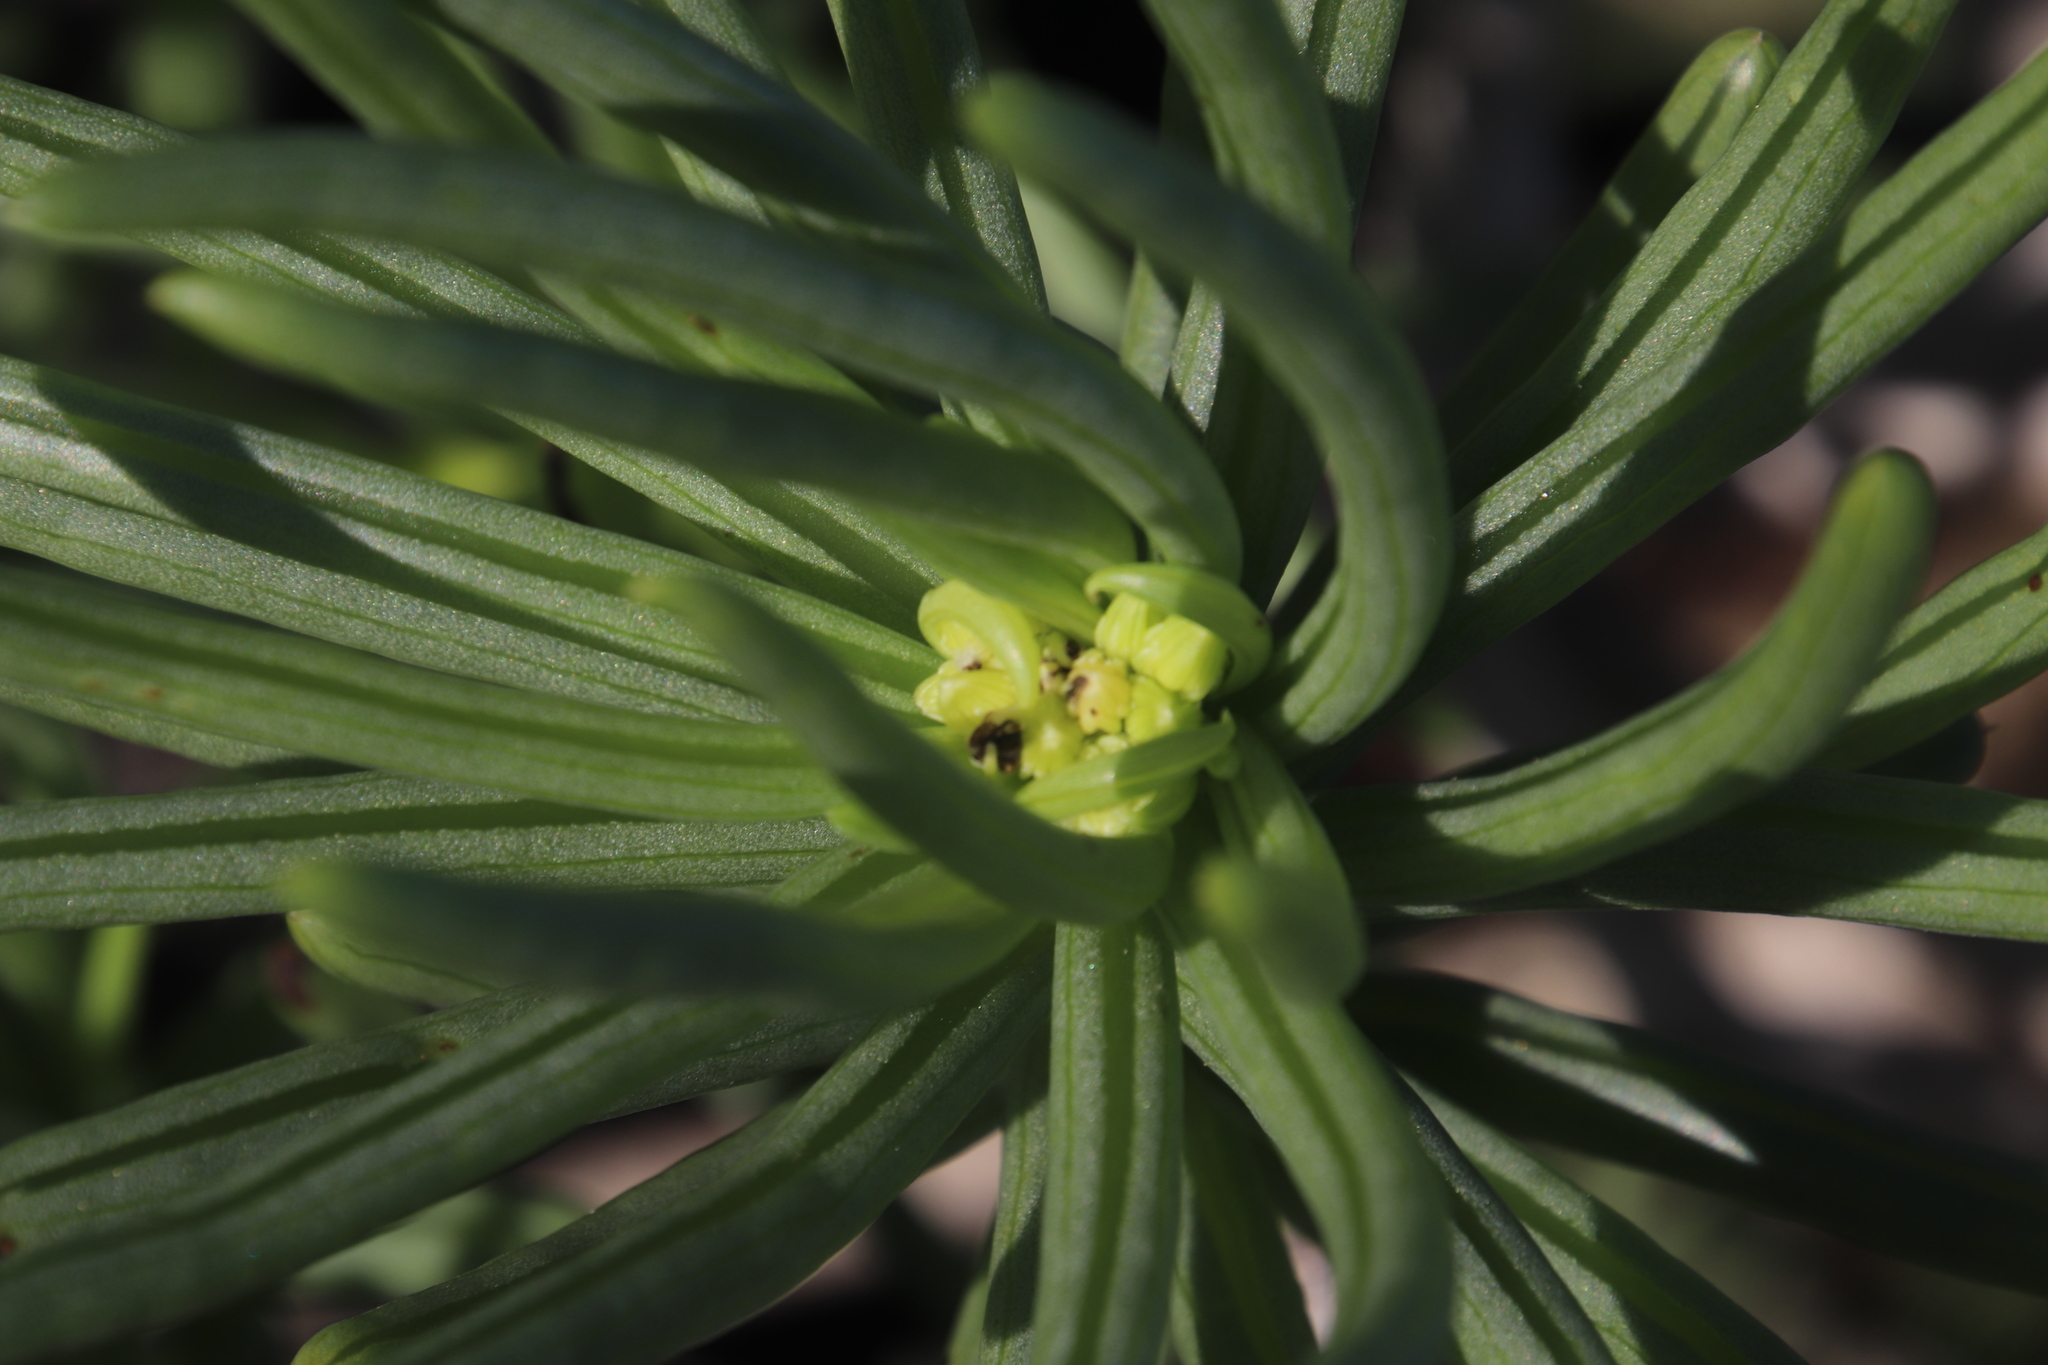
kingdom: Plantae
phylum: Tracheophyta
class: Magnoliopsida
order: Asterales
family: Asteraceae
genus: Curio
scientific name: Curio corymbifer
